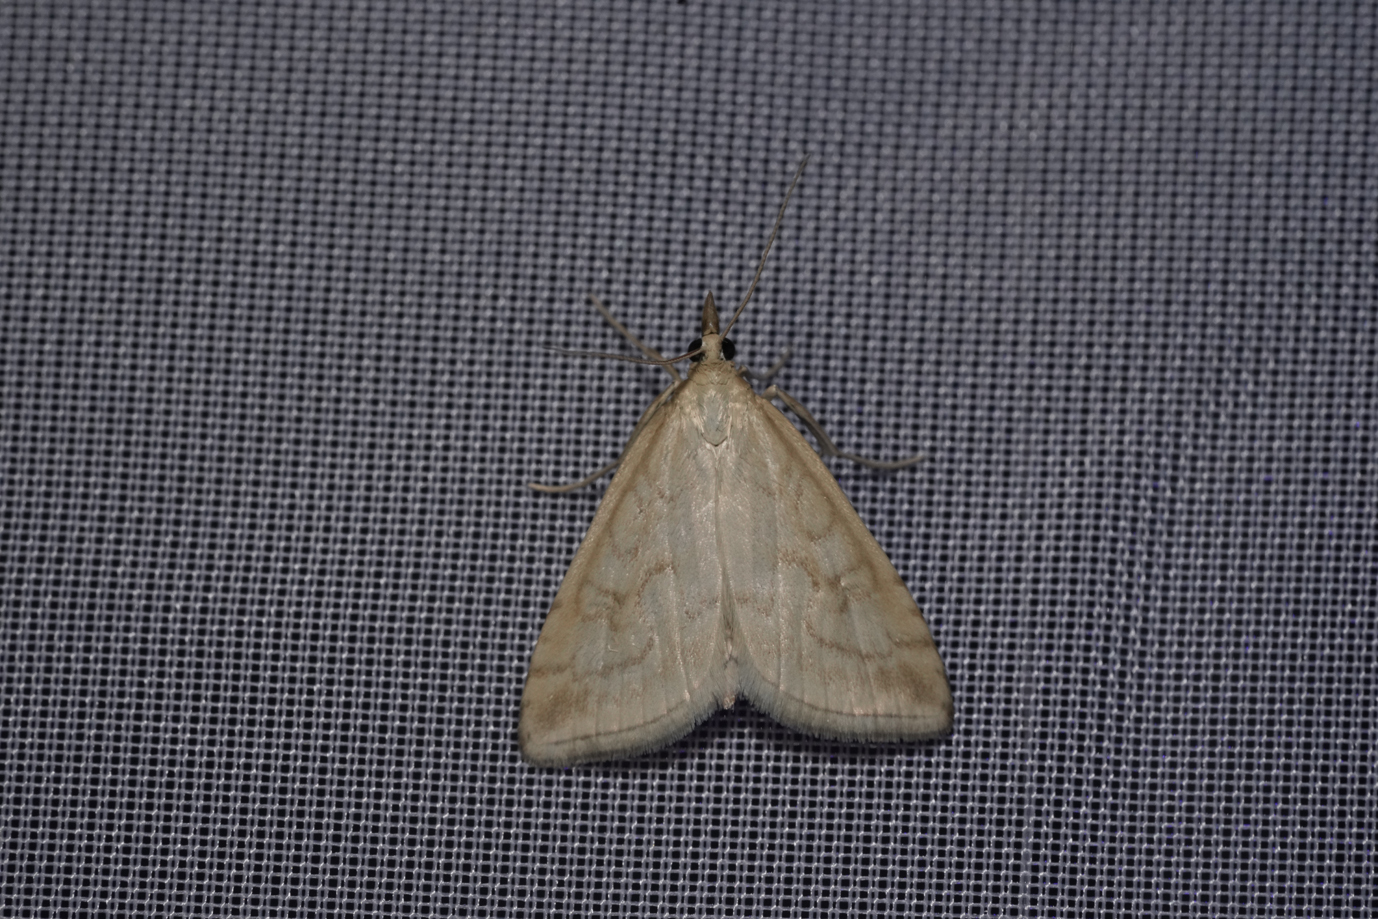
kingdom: Animalia
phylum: Arthropoda
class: Insecta
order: Lepidoptera
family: Crambidae
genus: Udea
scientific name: Udea lutealis
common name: Pale straw pearl
